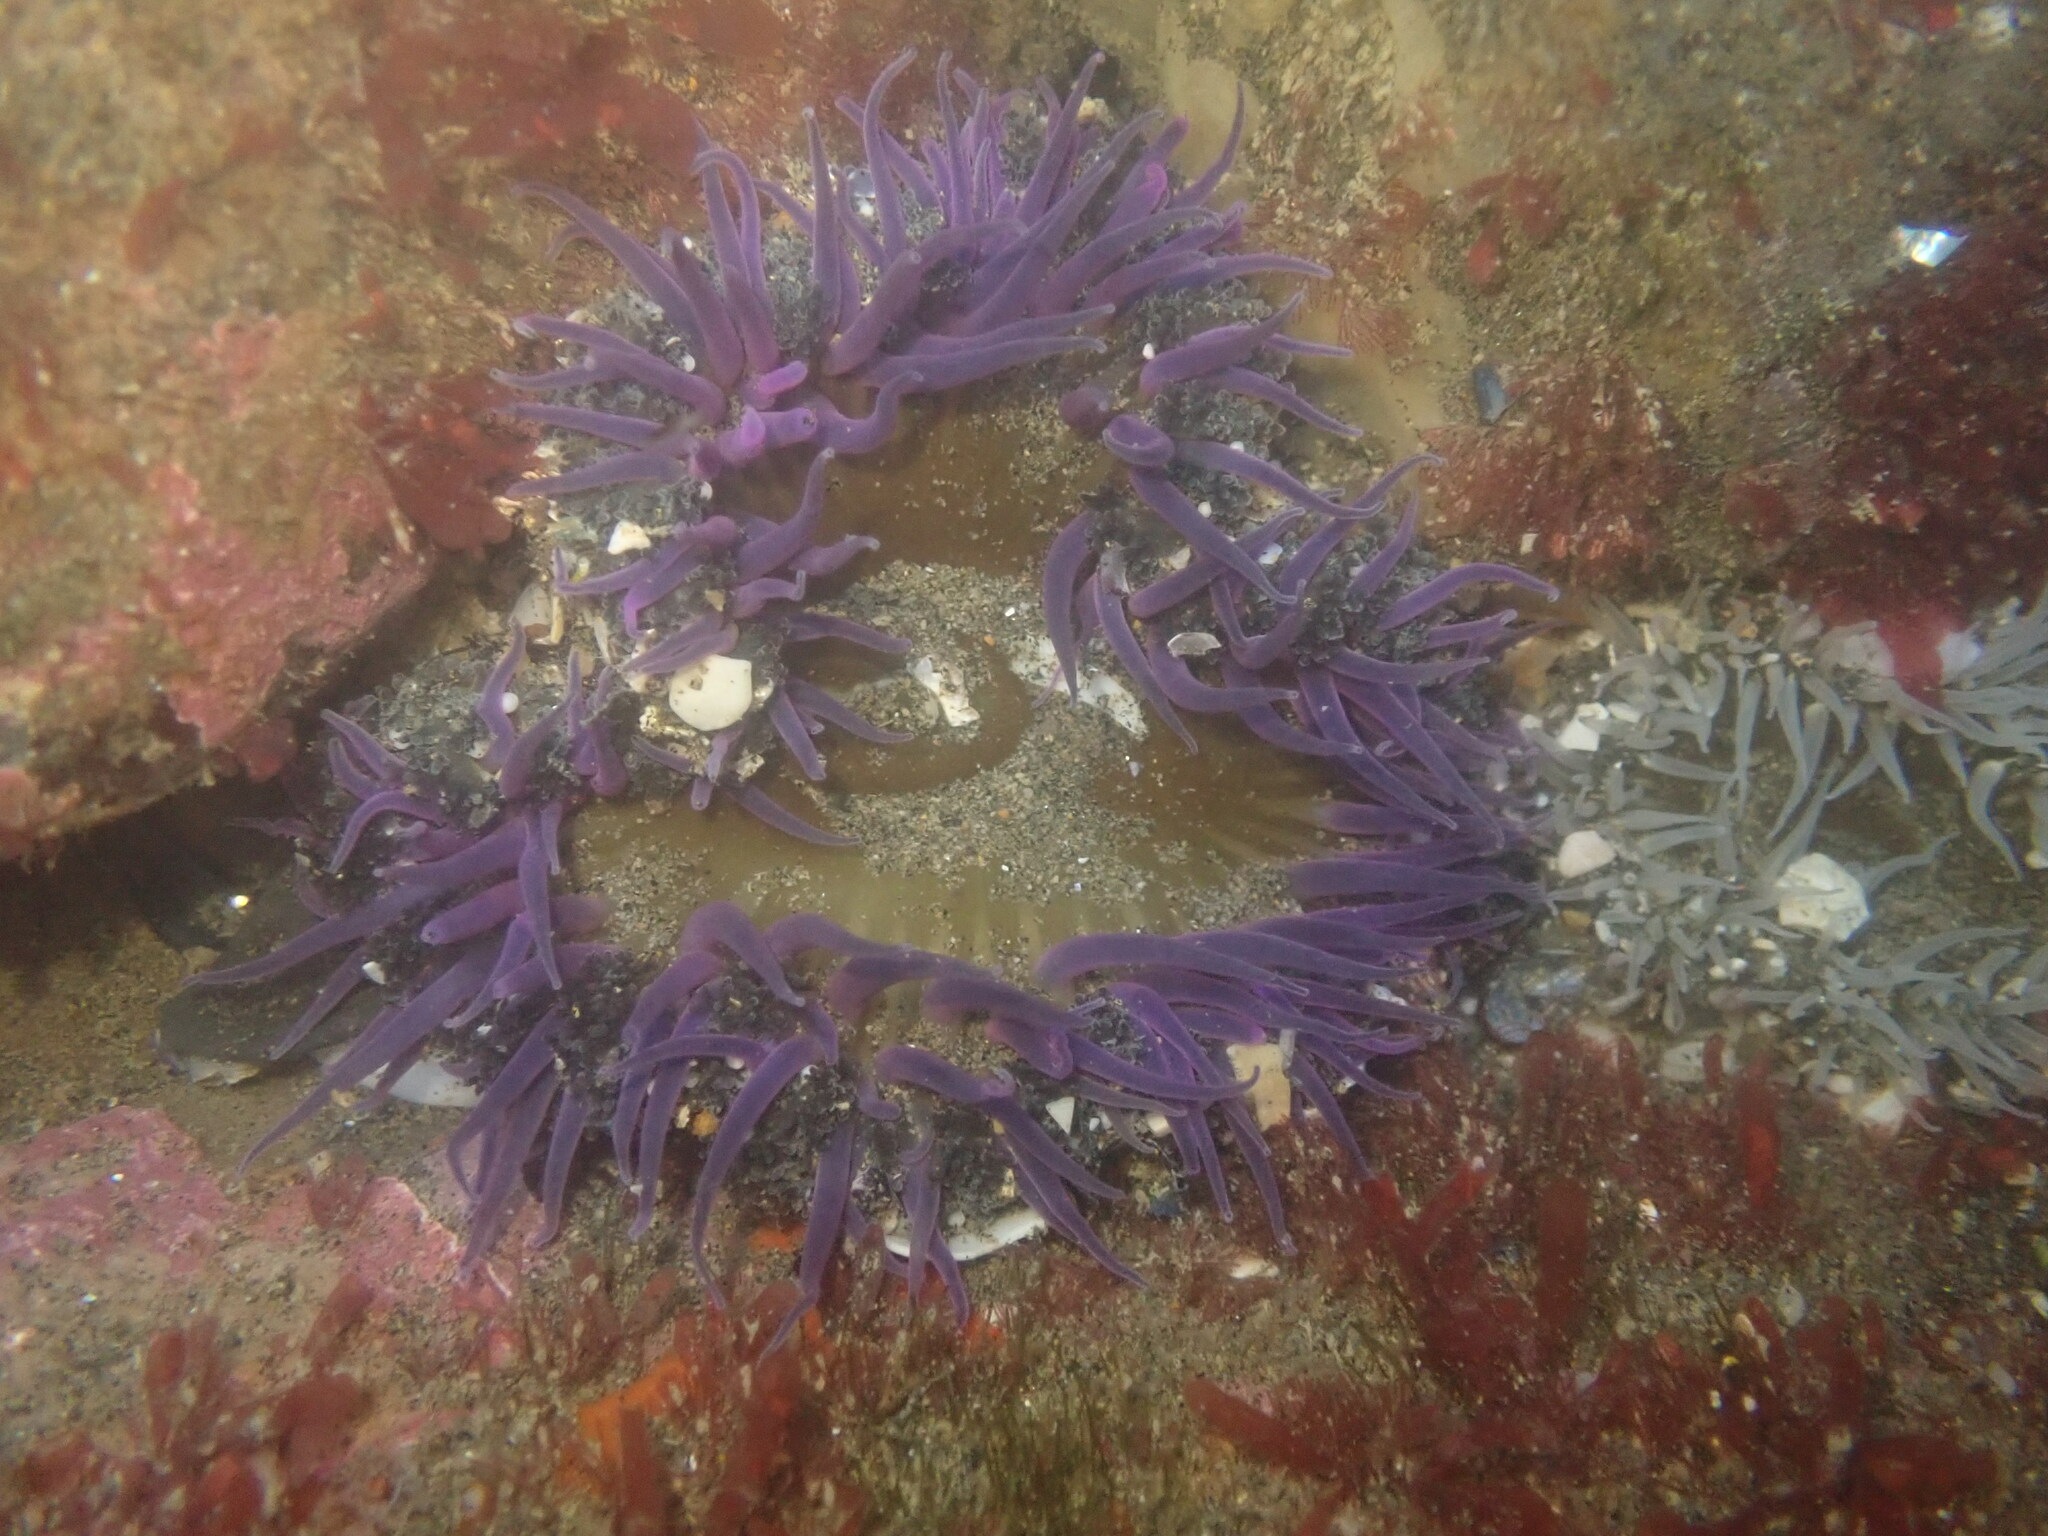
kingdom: Animalia
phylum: Cnidaria
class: Anthozoa
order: Actiniaria
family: Actiniidae
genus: Oulactis
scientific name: Oulactis magna
